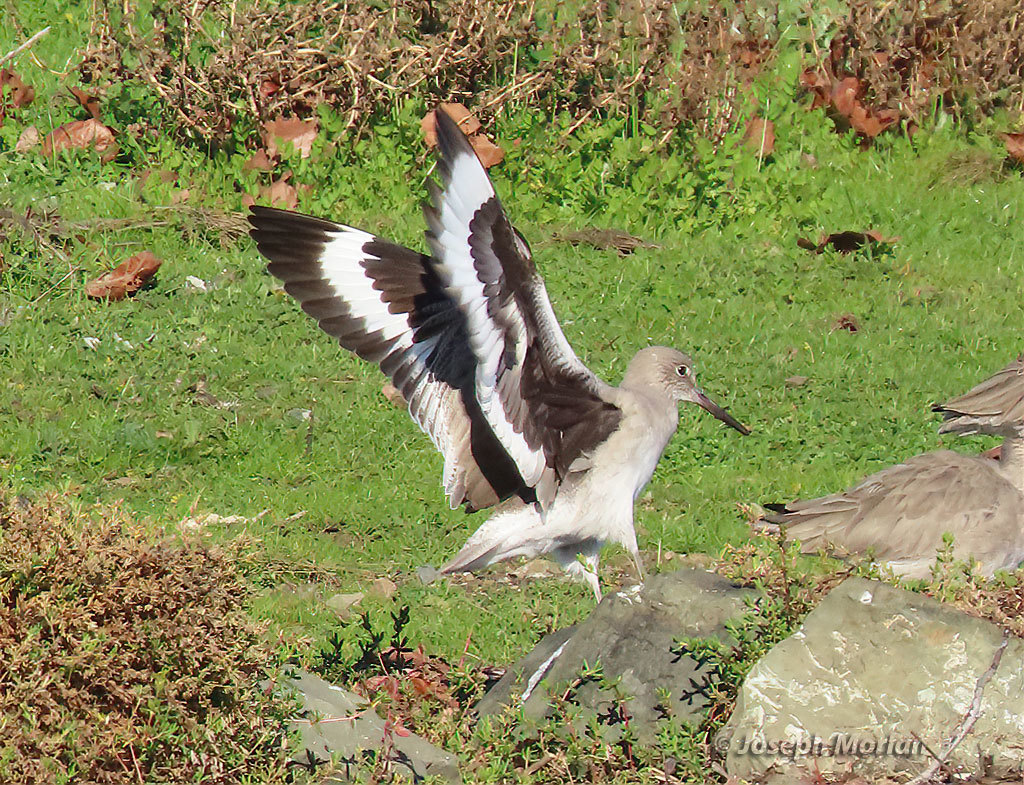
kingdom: Animalia
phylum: Chordata
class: Aves
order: Charadriiformes
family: Scolopacidae
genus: Tringa
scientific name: Tringa semipalmata
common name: Willet
